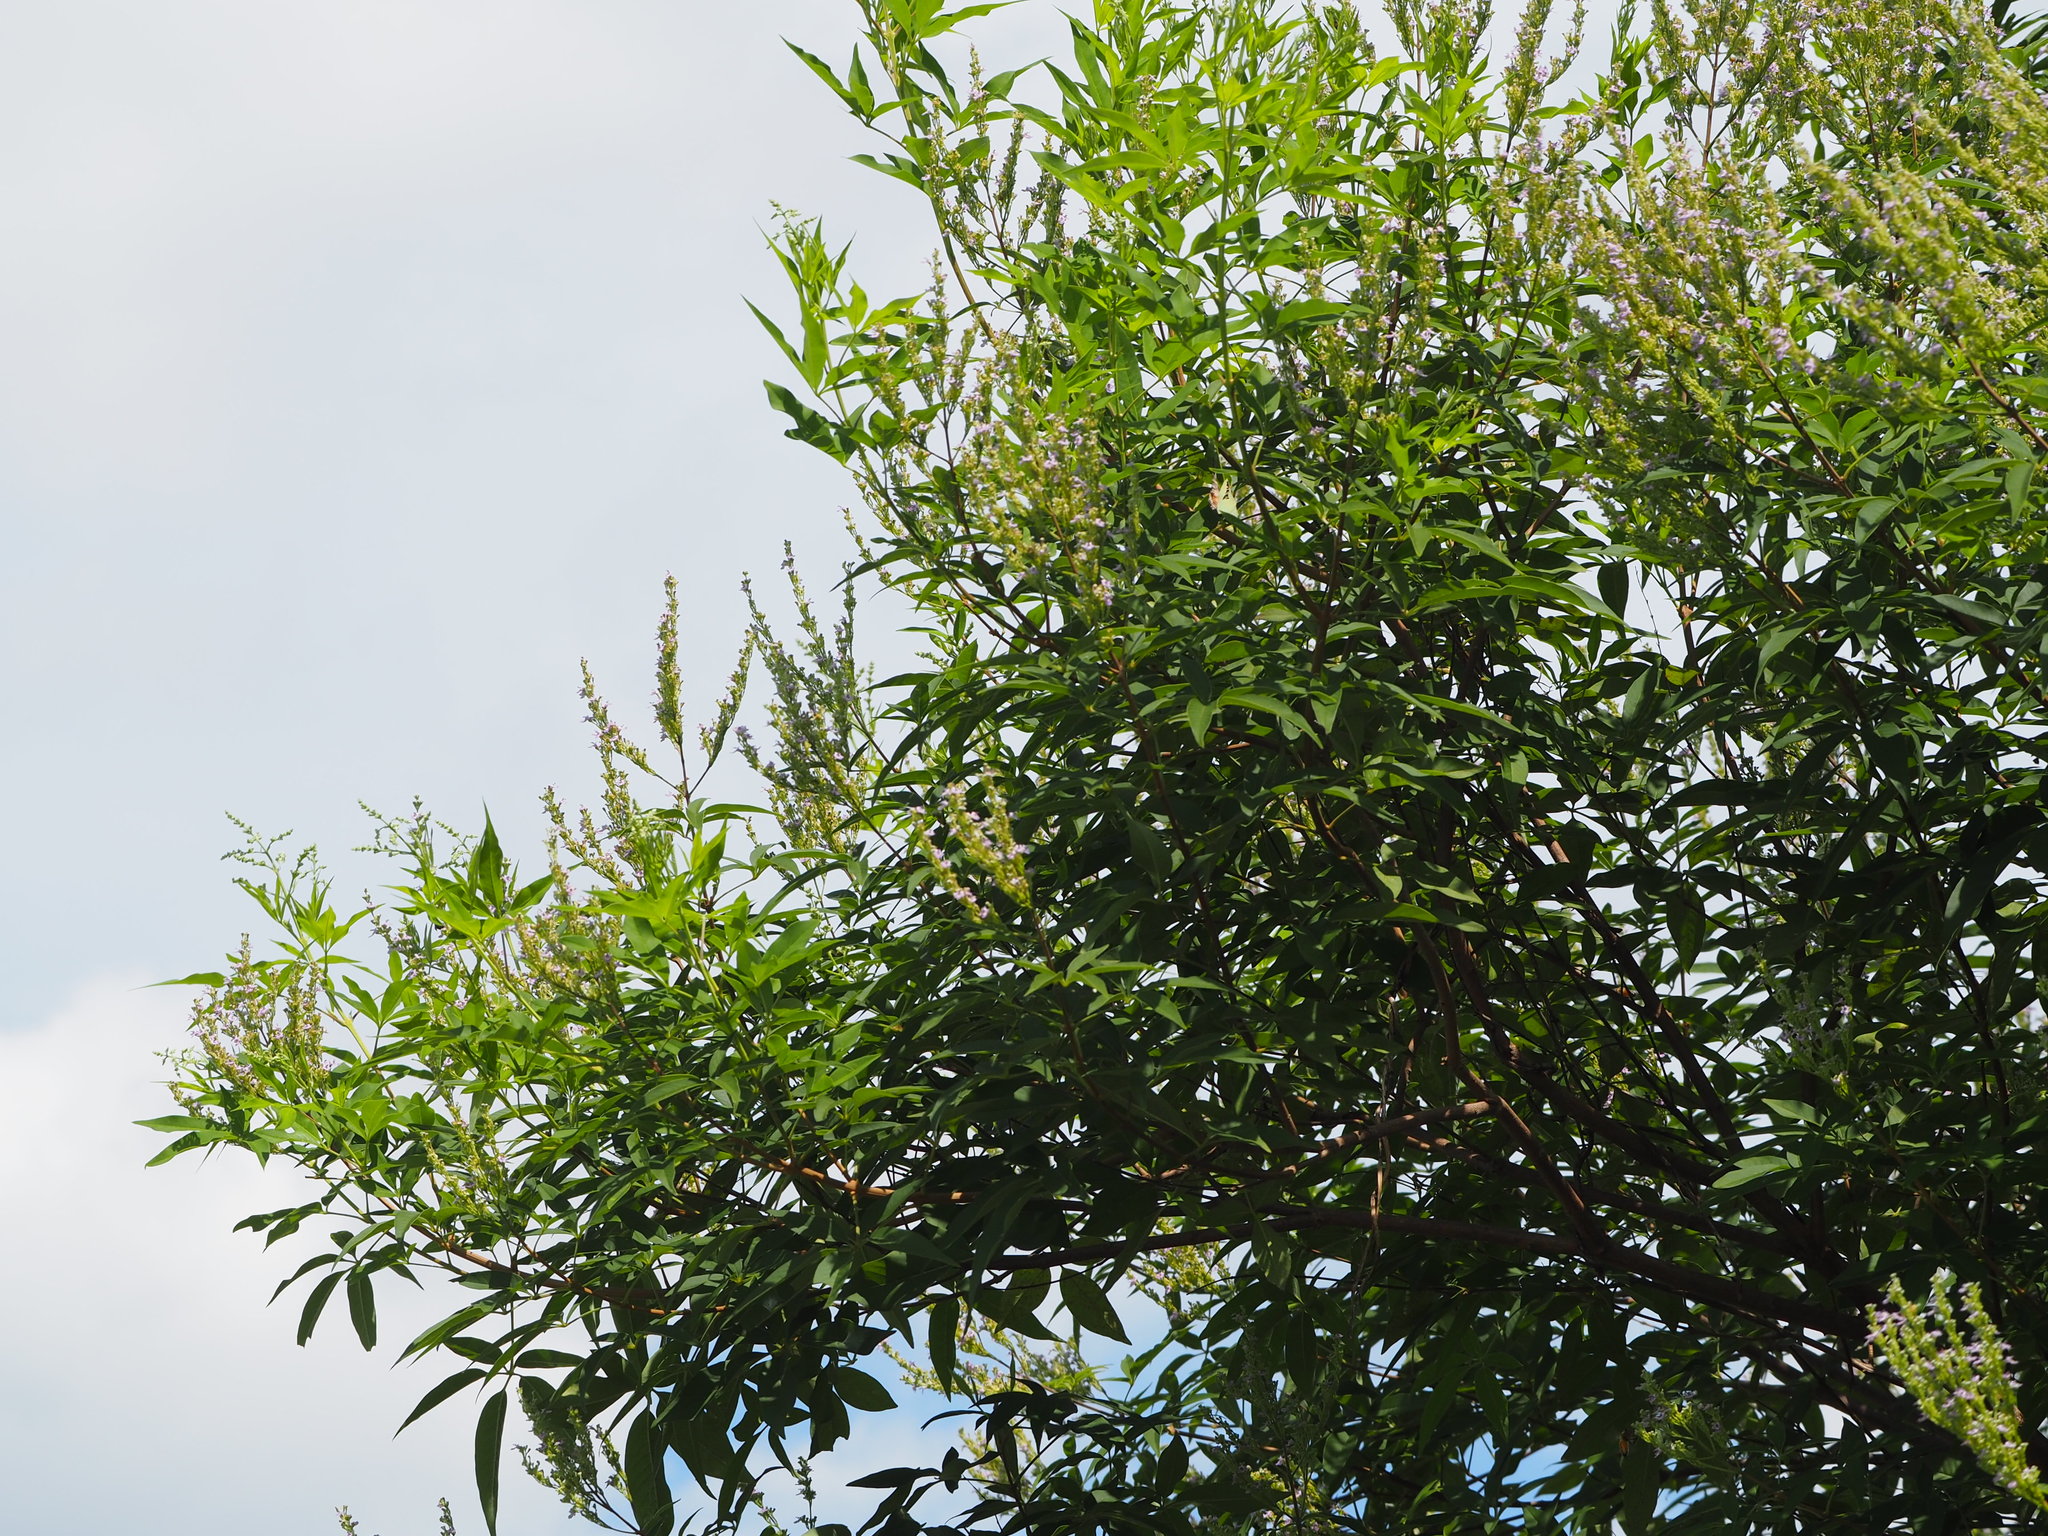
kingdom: Plantae
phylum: Tracheophyta
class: Magnoliopsida
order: Lamiales
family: Lamiaceae
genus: Vitex
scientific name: Vitex negundo
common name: Chinese chastetree
